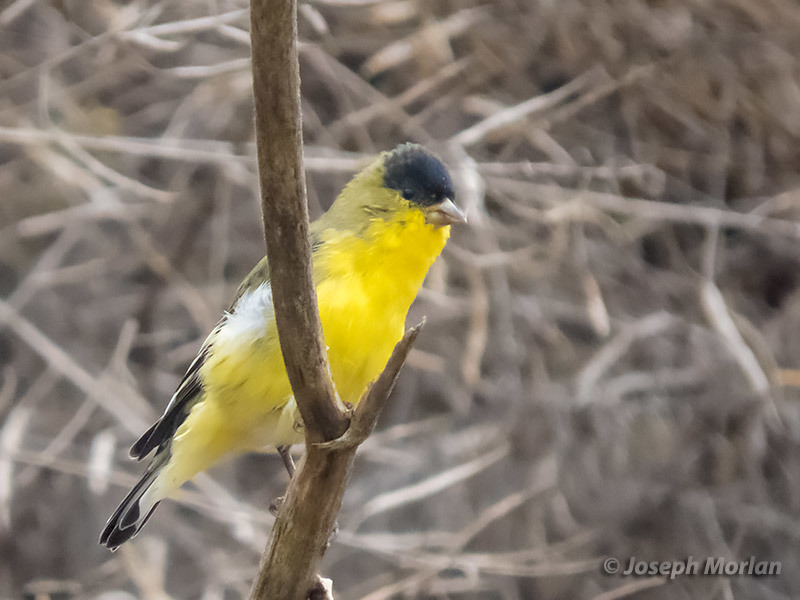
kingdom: Animalia
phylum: Chordata
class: Aves
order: Passeriformes
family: Fringillidae
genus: Spinus
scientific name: Spinus psaltria
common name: Lesser goldfinch
